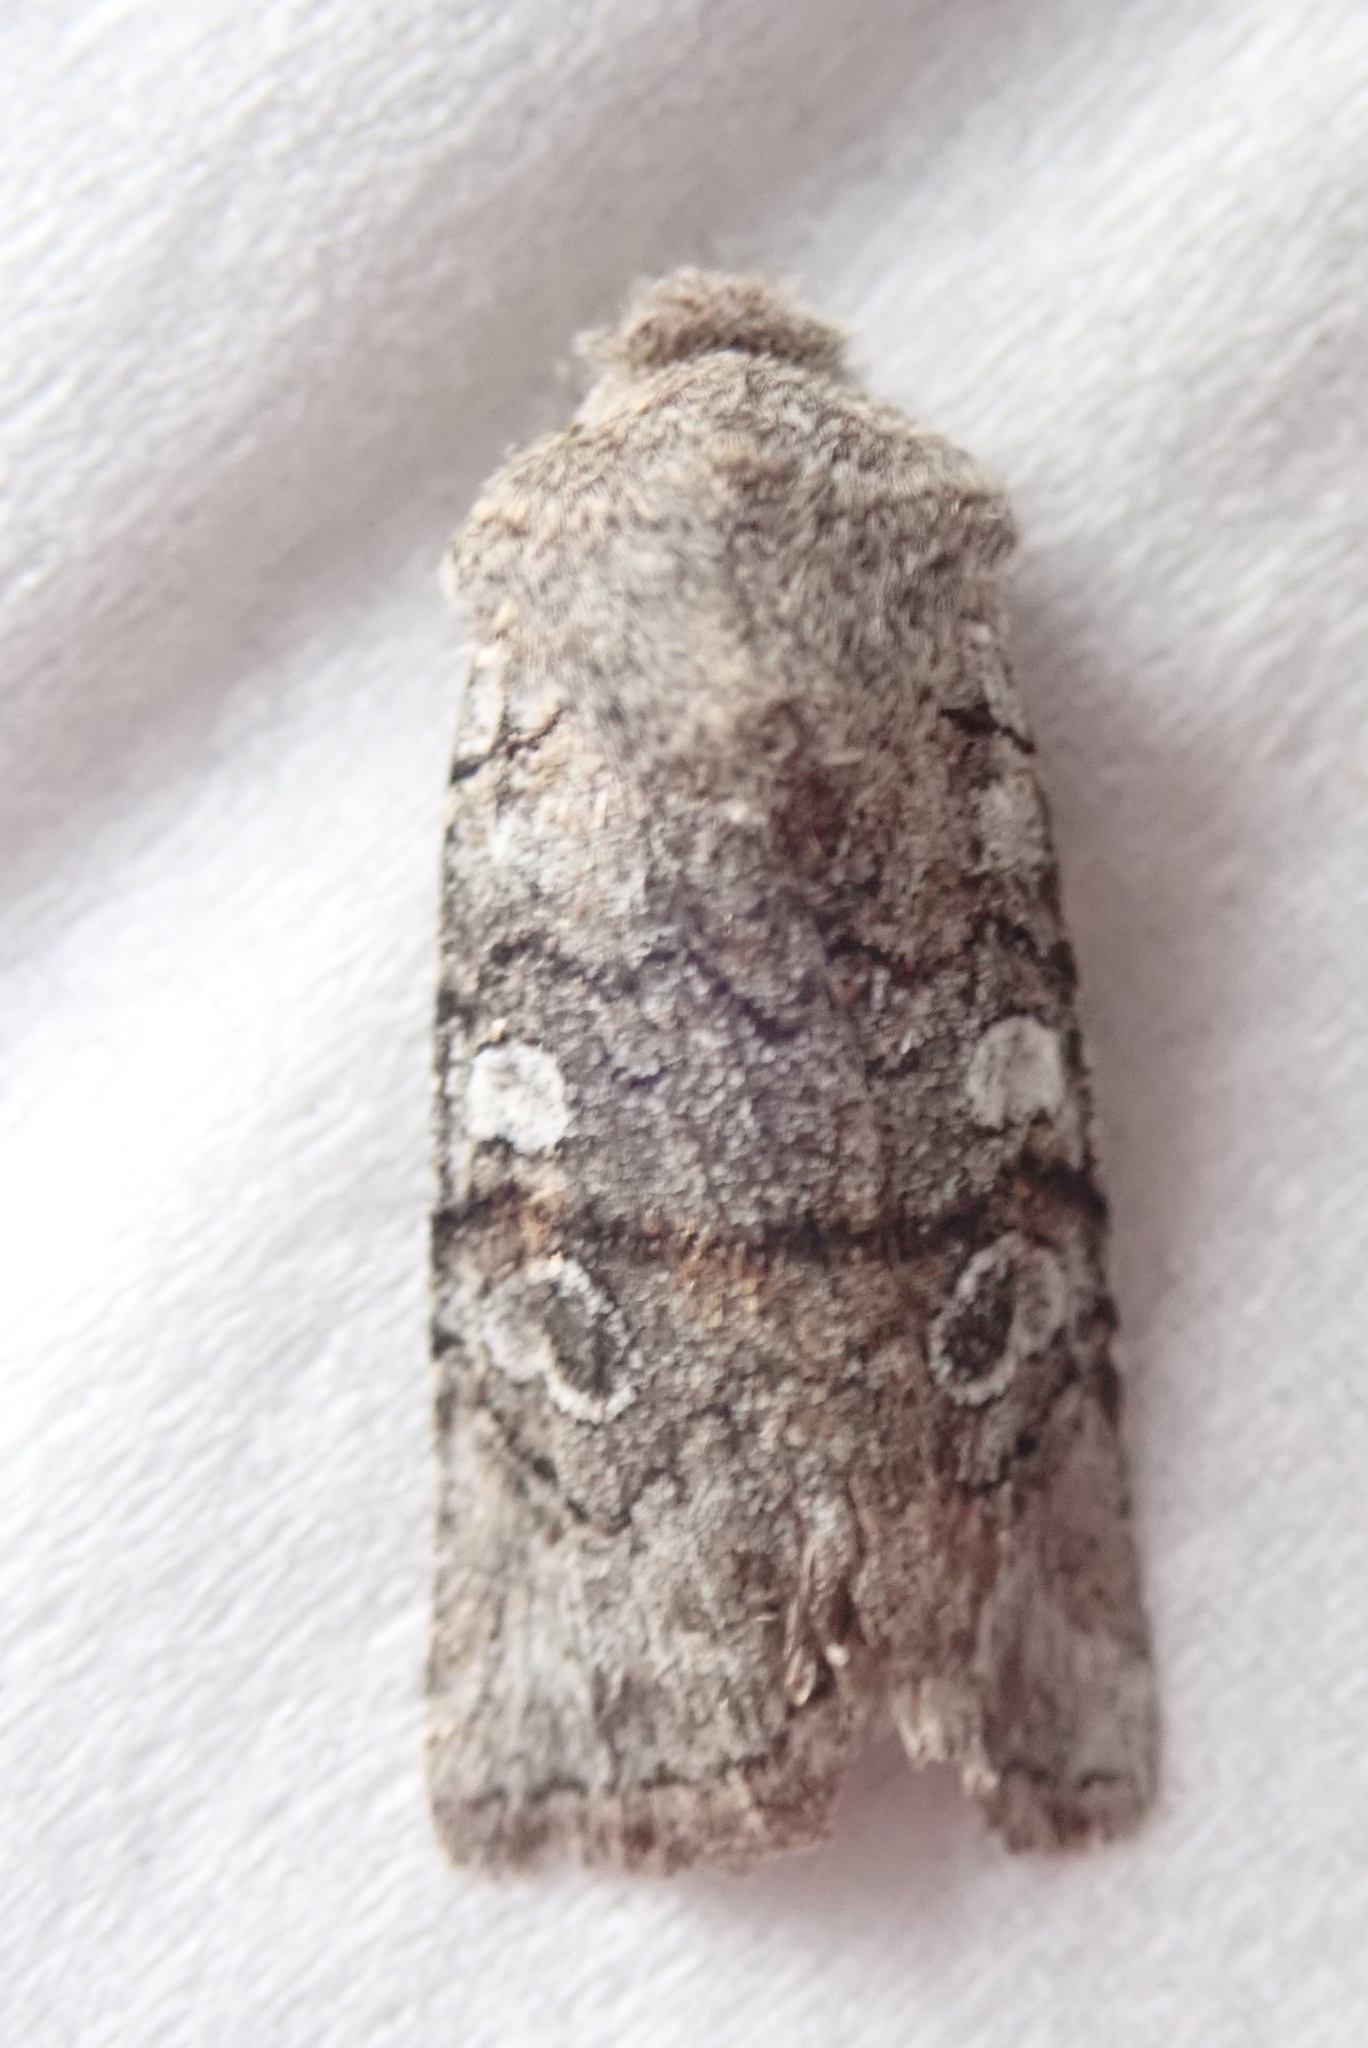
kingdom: Animalia
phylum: Arthropoda
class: Insecta
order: Lepidoptera
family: Noctuidae
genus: Litholomia
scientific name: Litholomia napaea
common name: False pinion moth
